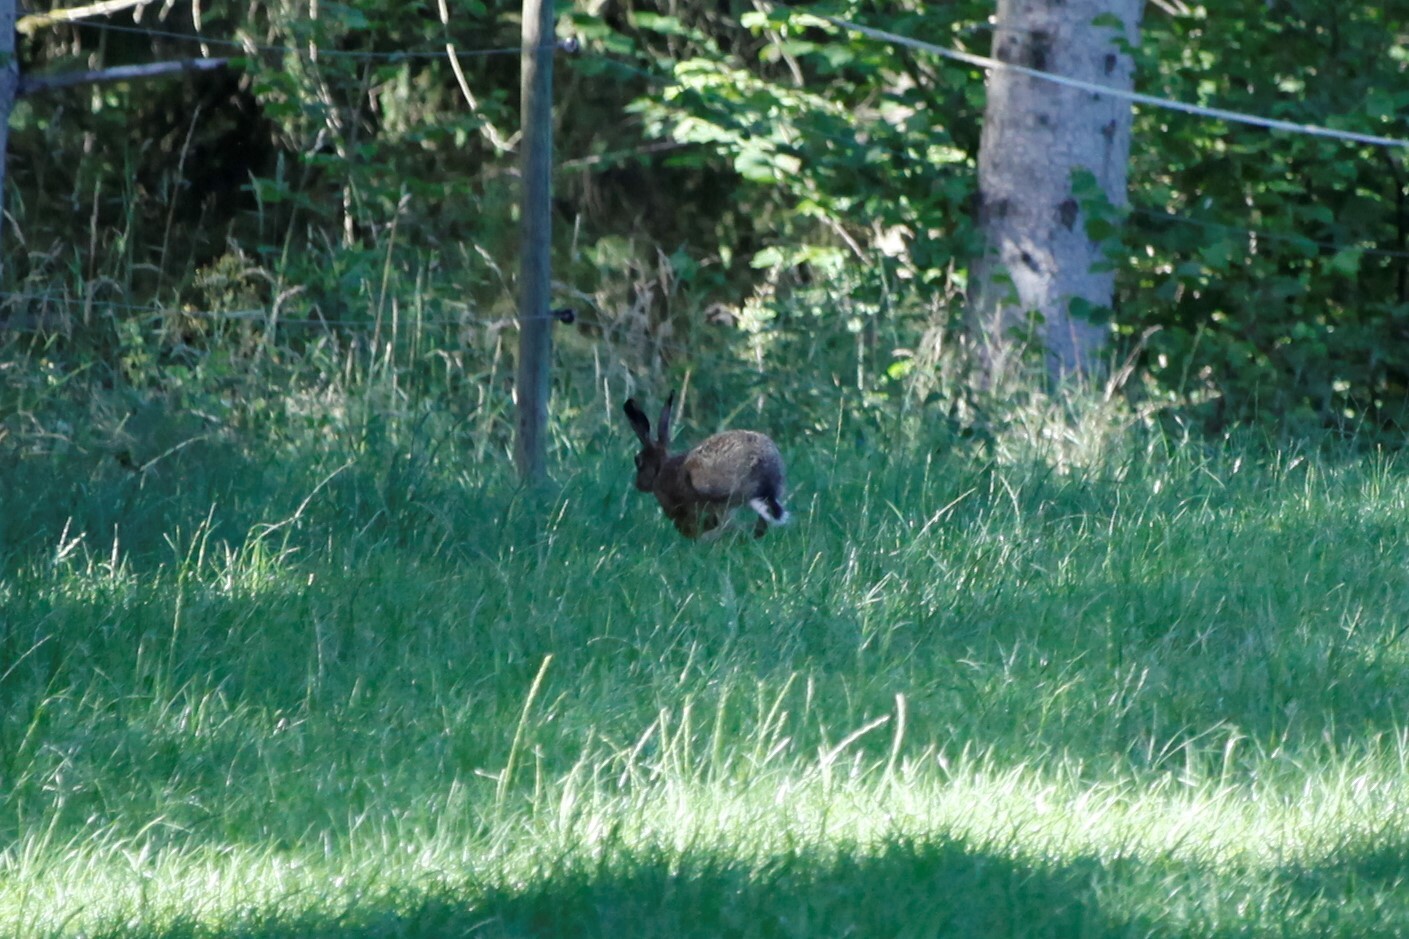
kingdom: Animalia
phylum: Chordata
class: Mammalia
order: Lagomorpha
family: Leporidae
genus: Lepus
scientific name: Lepus europaeus
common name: European hare
